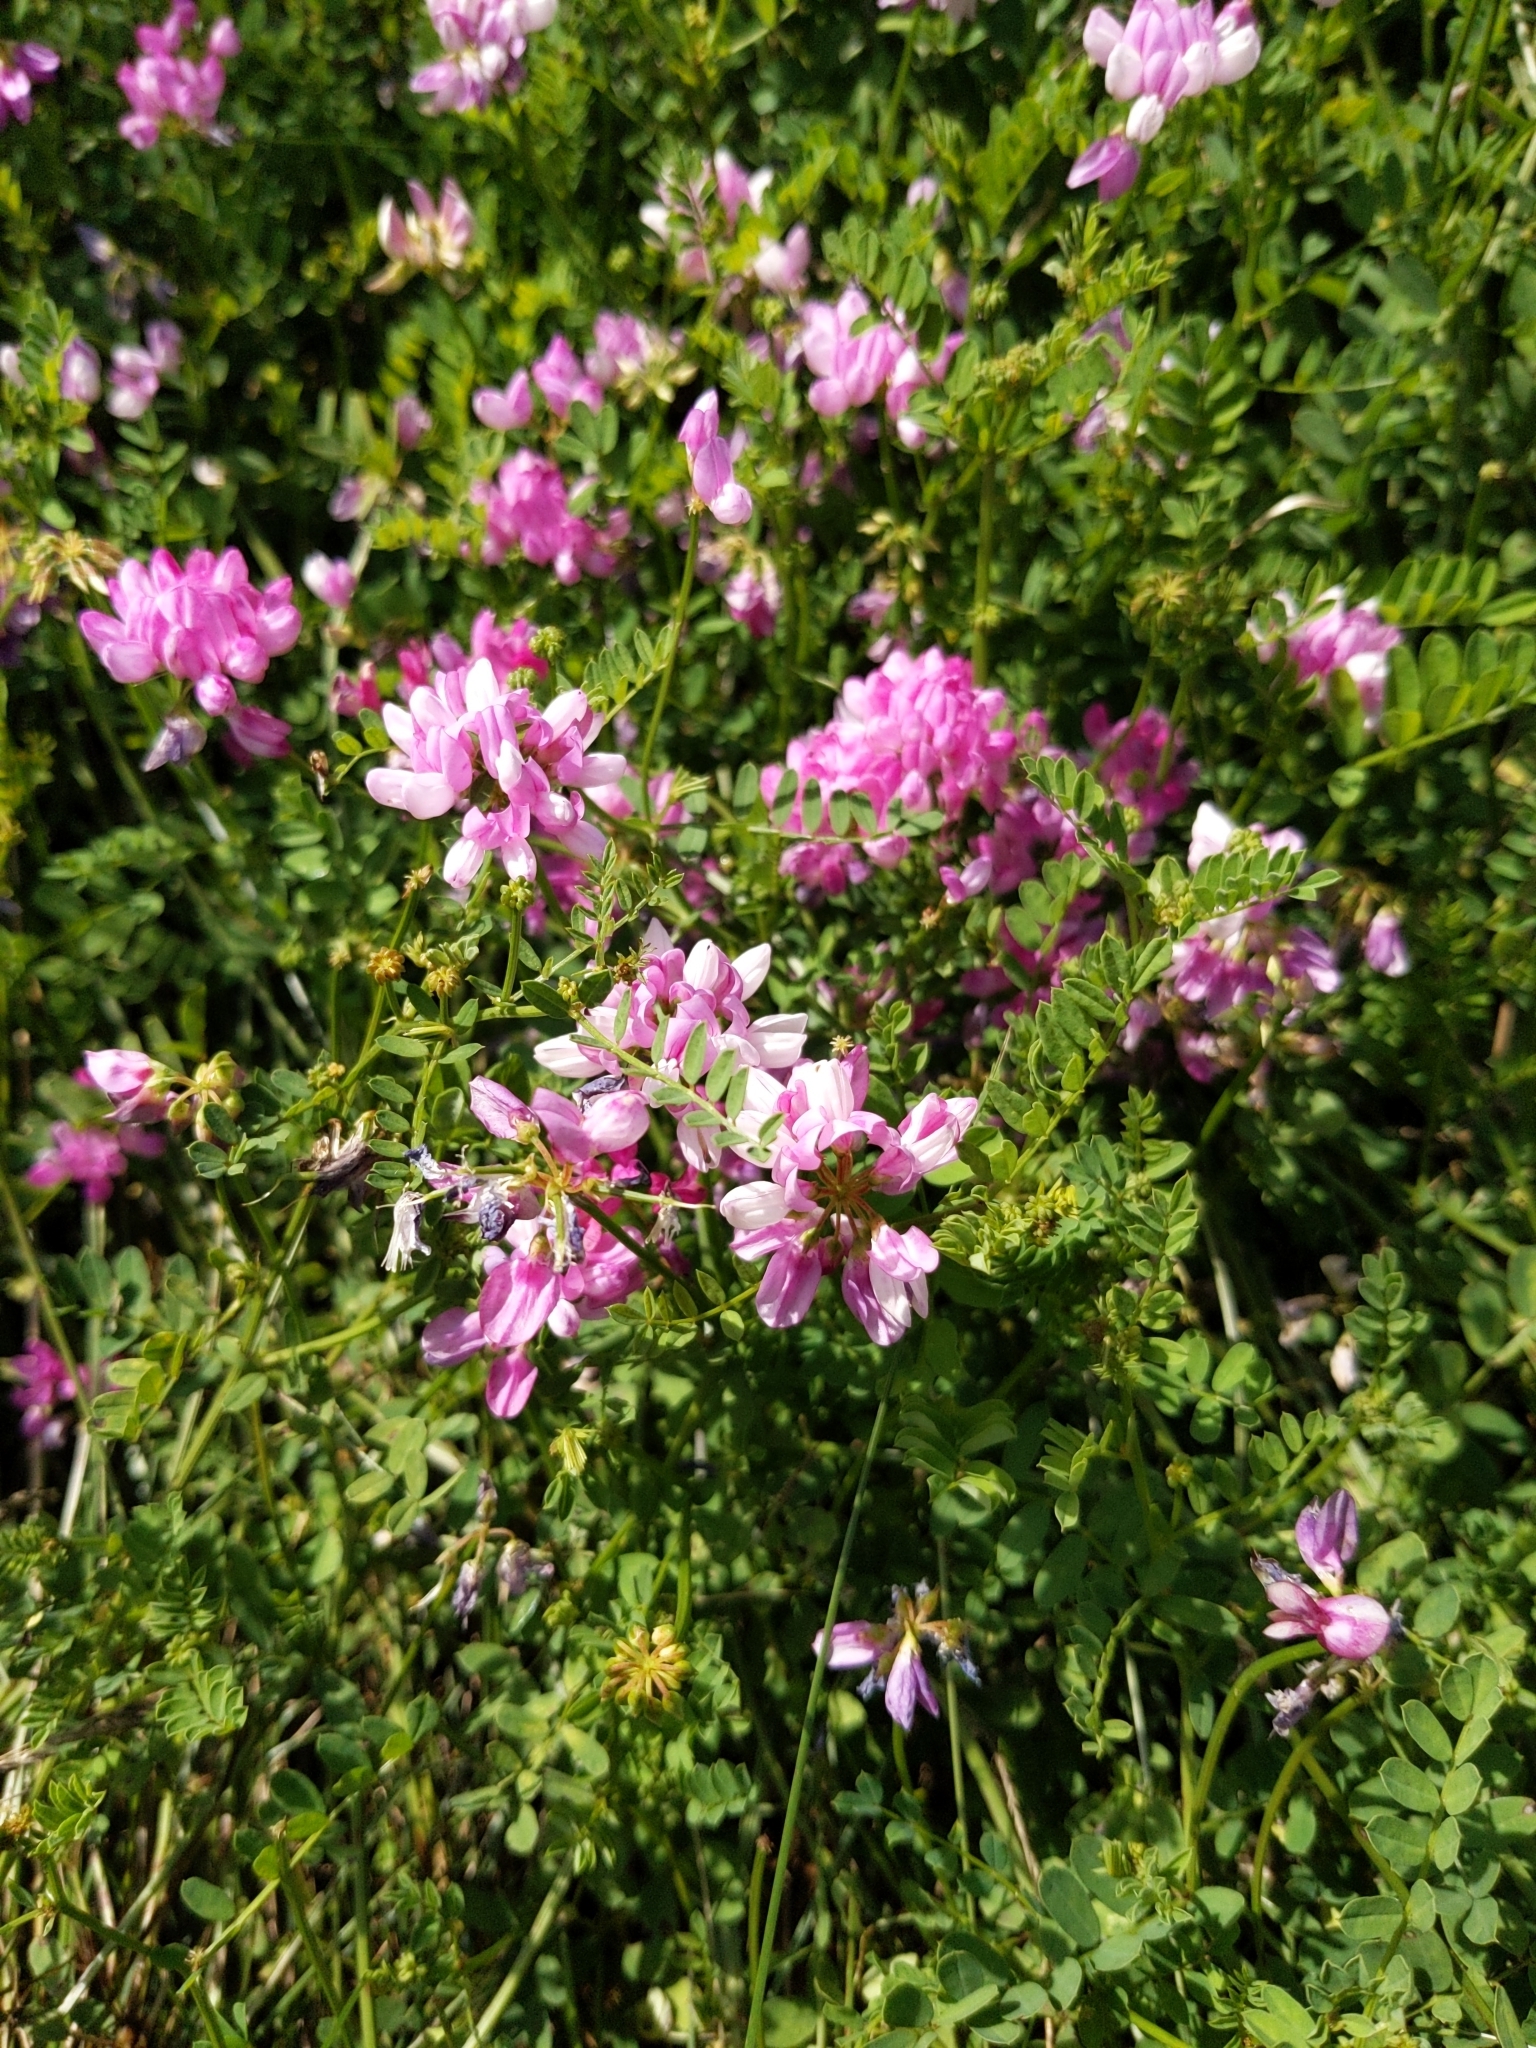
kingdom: Plantae
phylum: Tracheophyta
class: Magnoliopsida
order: Fabales
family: Fabaceae
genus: Coronilla
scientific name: Coronilla varia
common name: Crownvetch
